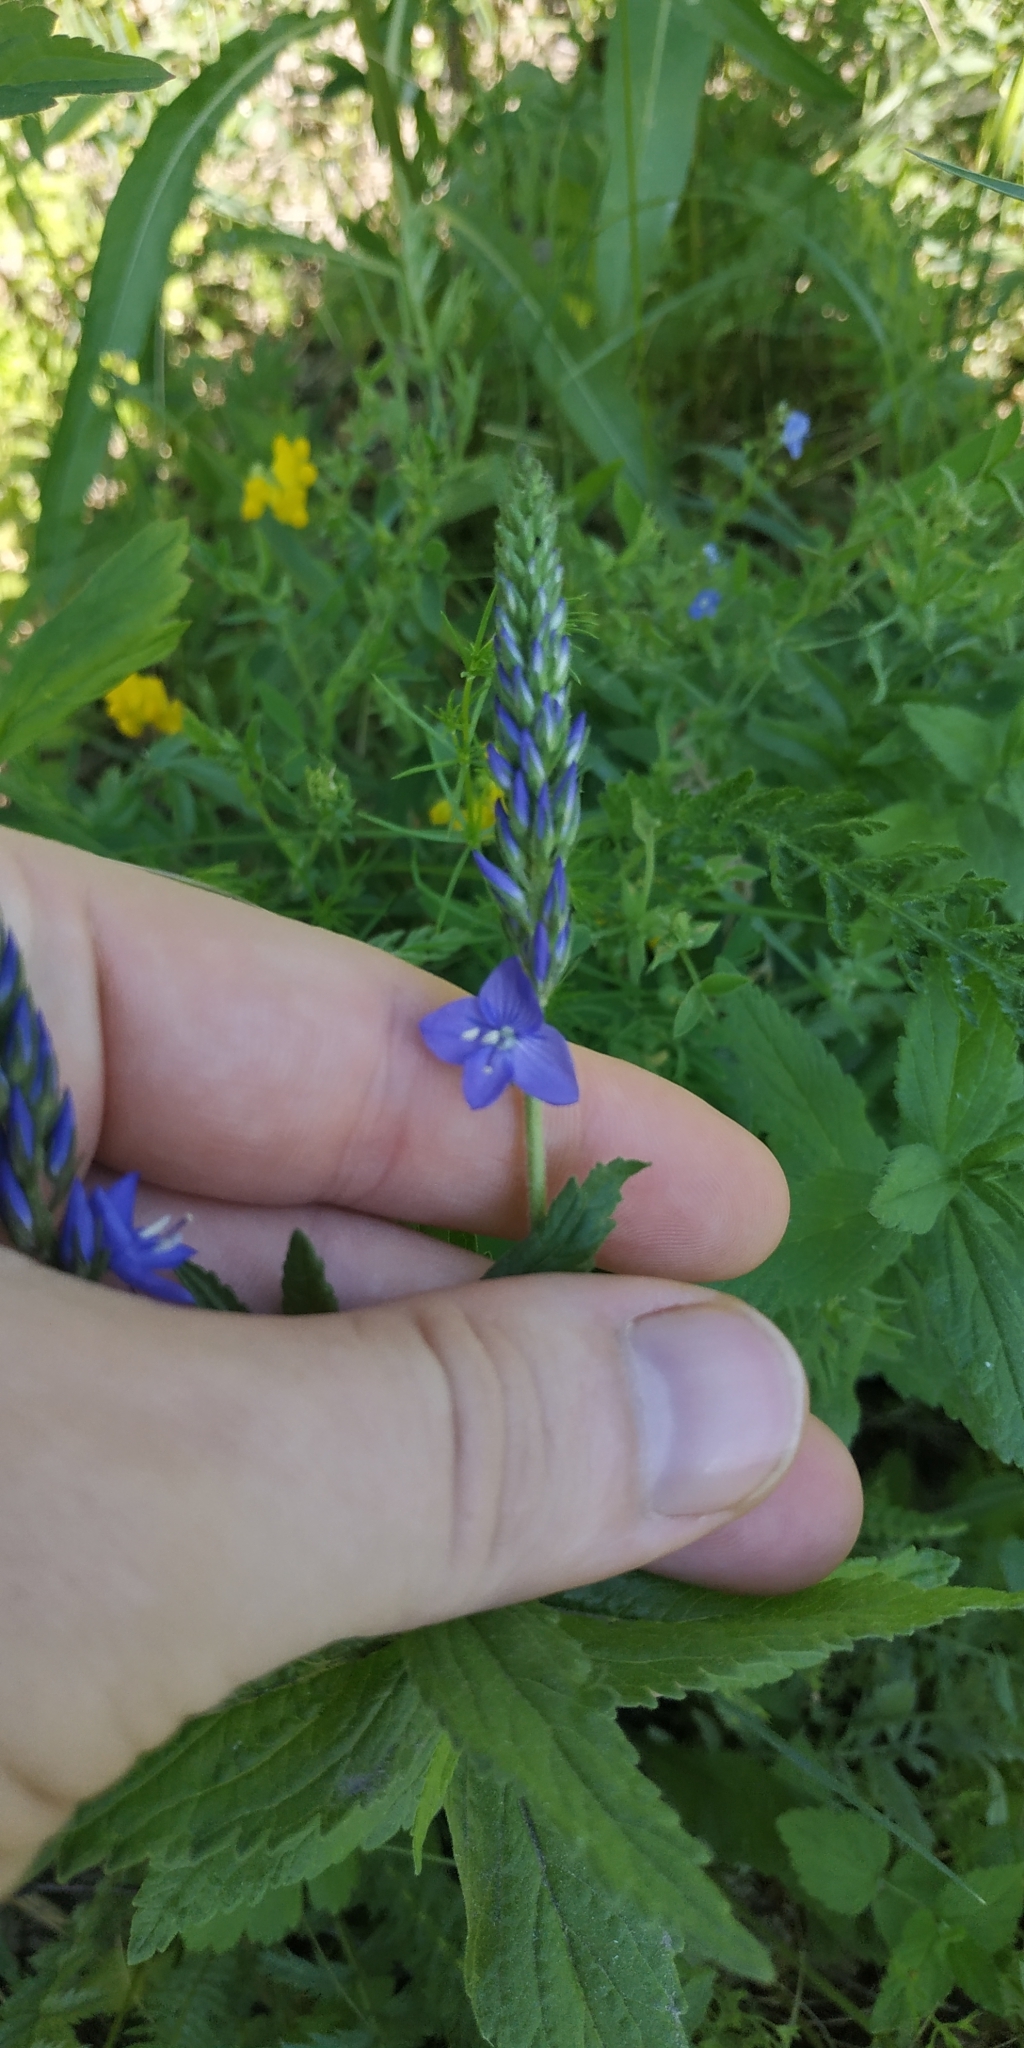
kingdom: Plantae
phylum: Tracheophyta
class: Magnoliopsida
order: Lamiales
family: Plantaginaceae
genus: Veronica
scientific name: Veronica teucrium
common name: Large speedwell
